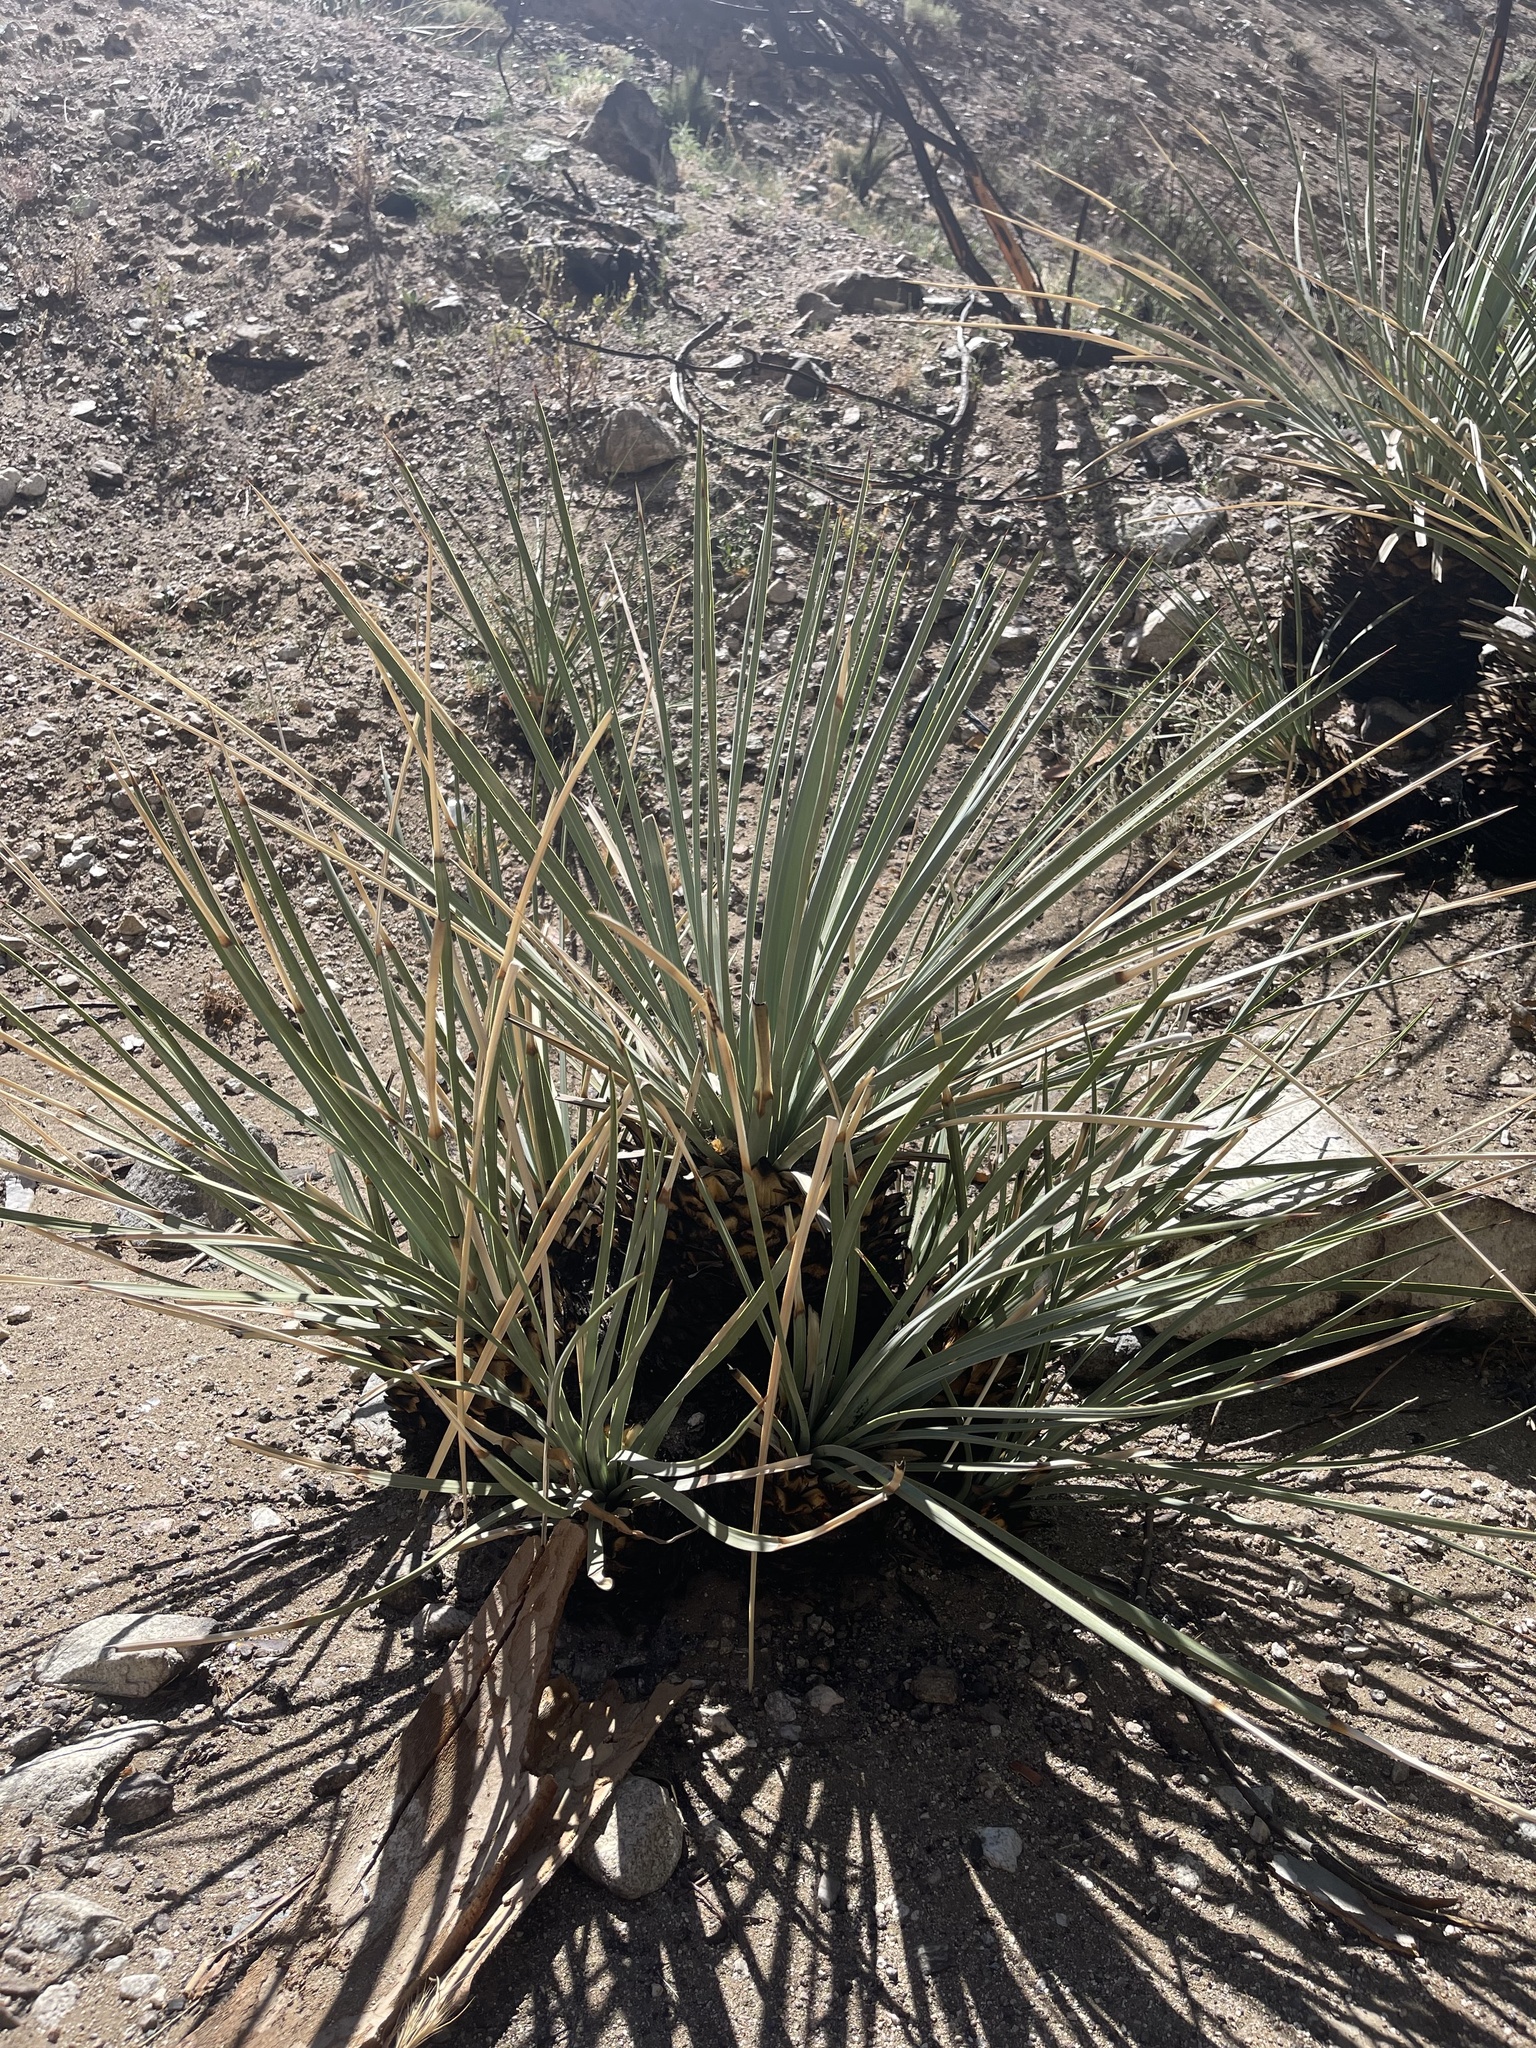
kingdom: Plantae
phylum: Tracheophyta
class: Liliopsida
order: Asparagales
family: Asparagaceae
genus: Hesperoyucca
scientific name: Hesperoyucca whipplei
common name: Our lord's-candle
